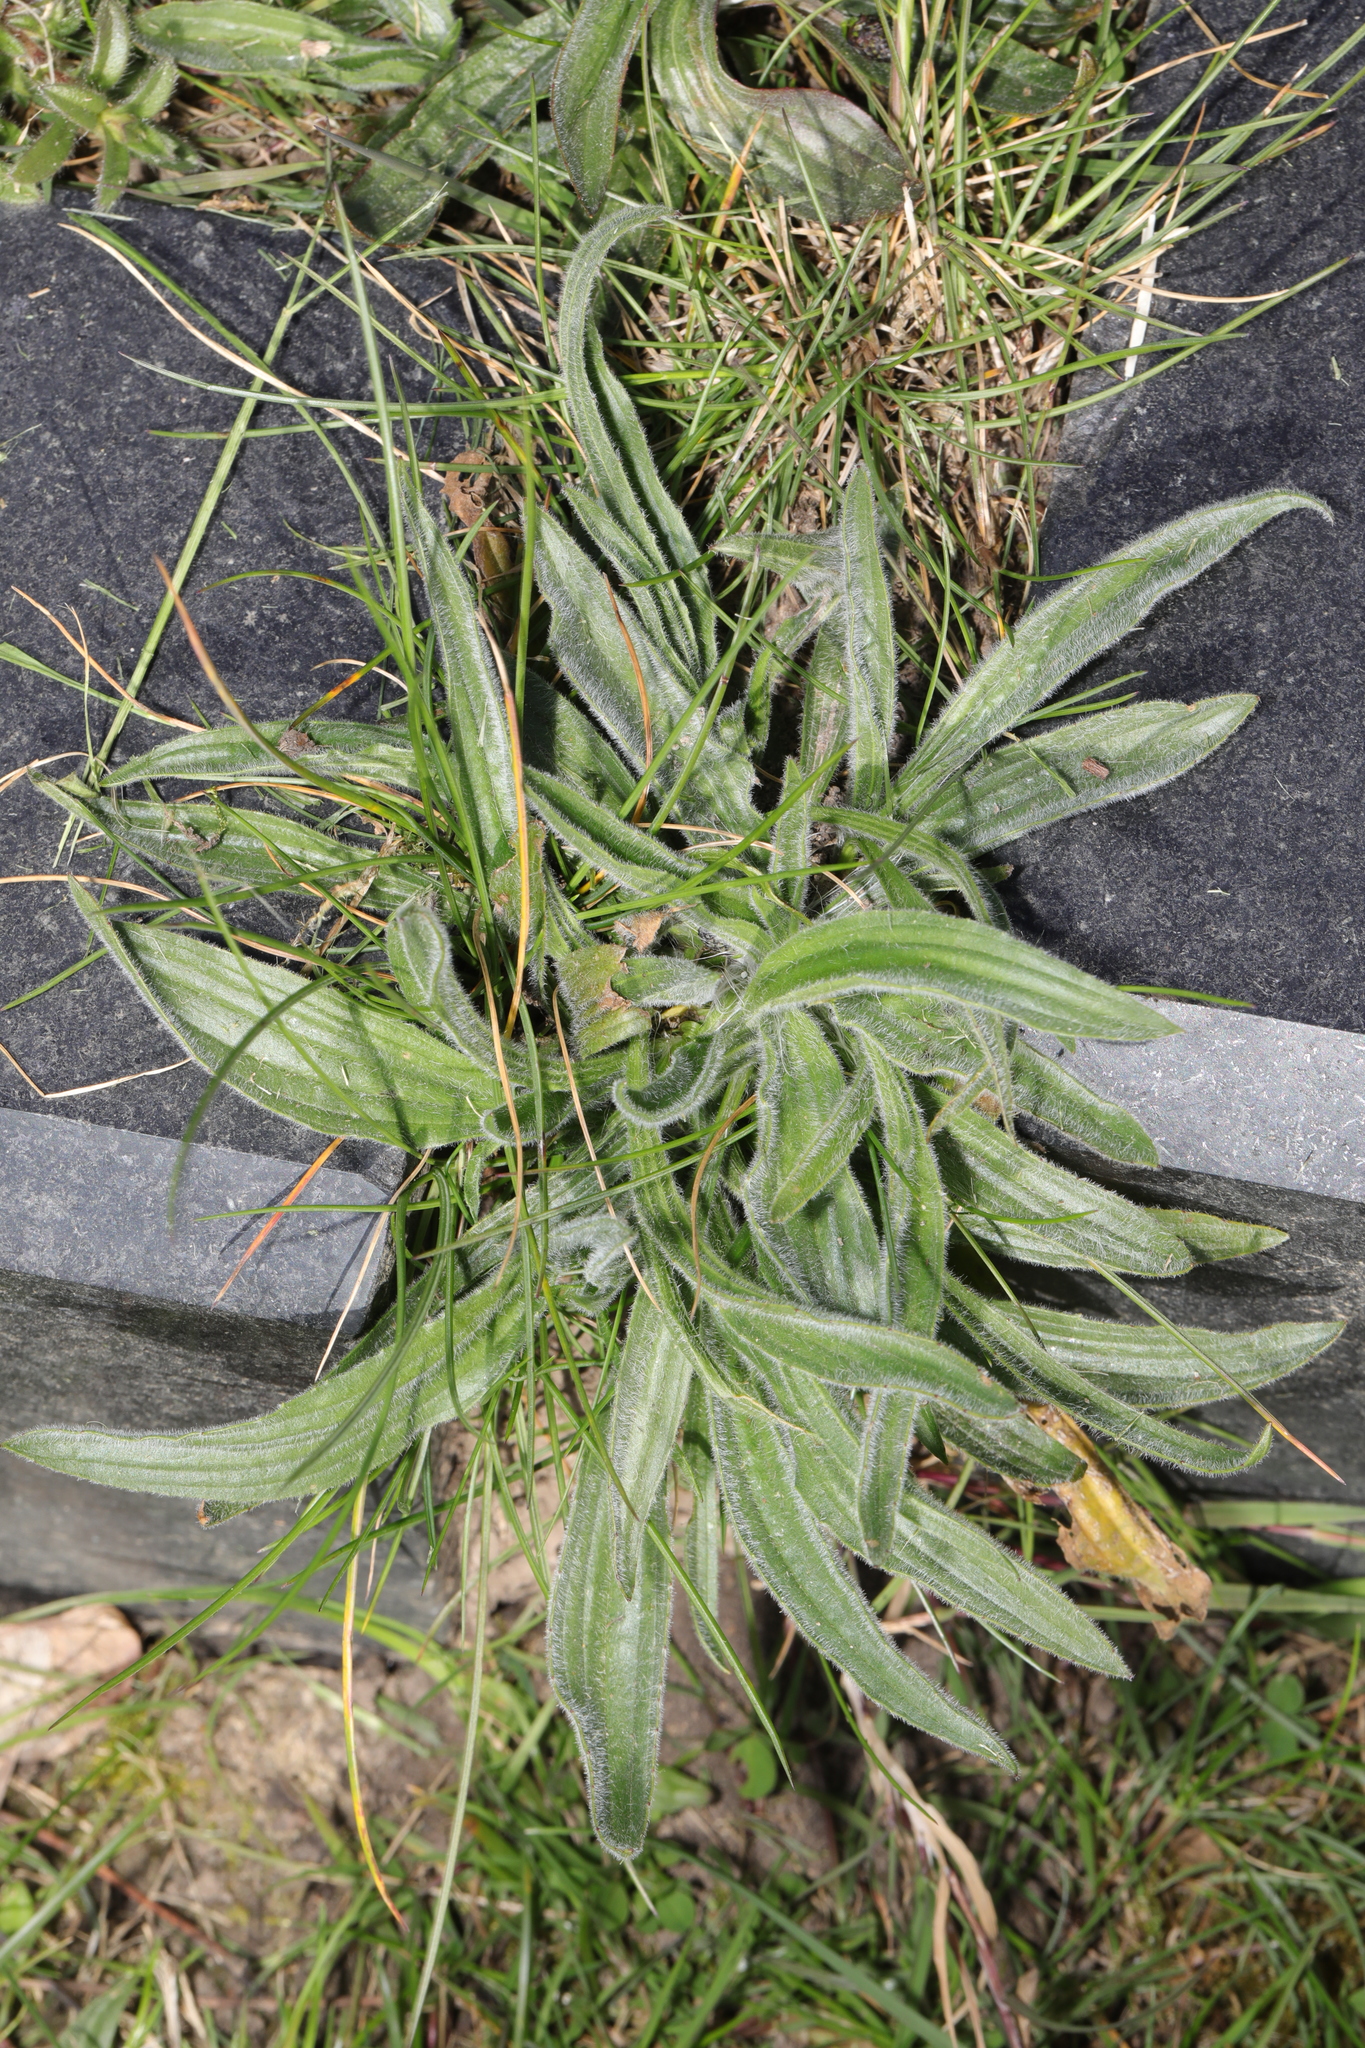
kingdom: Plantae
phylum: Tracheophyta
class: Magnoliopsida
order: Lamiales
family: Plantaginaceae
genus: Plantago
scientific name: Plantago lanceolata
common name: Ribwort plantain
